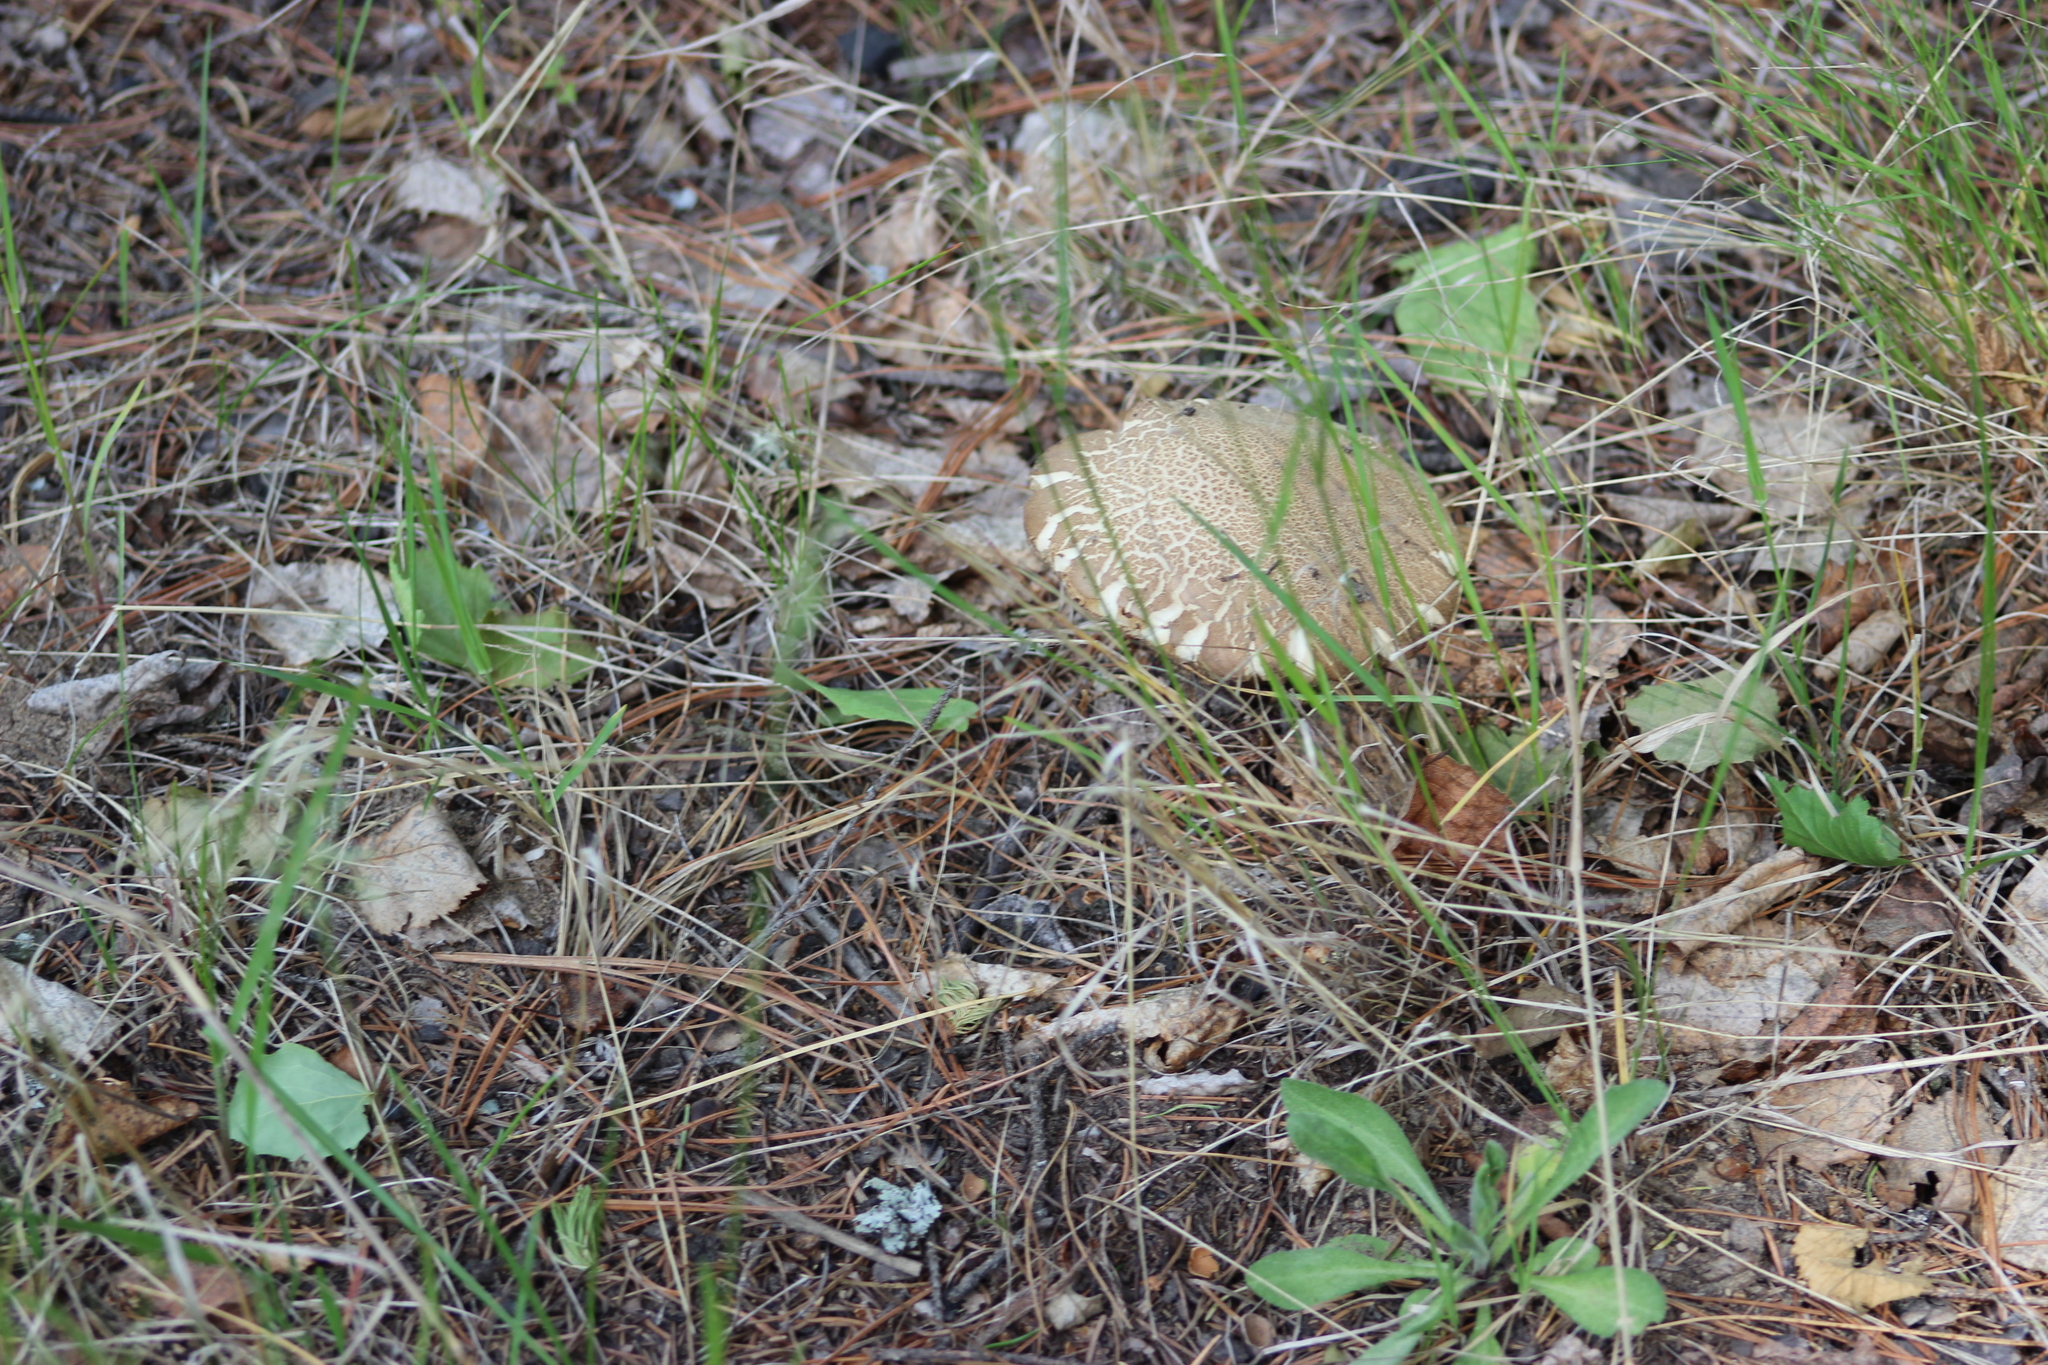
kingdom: Fungi
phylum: Basidiomycota
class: Agaricomycetes
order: Boletales
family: Boletaceae
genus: Leccinum
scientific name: Leccinum scabrum
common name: Blushing bolete
